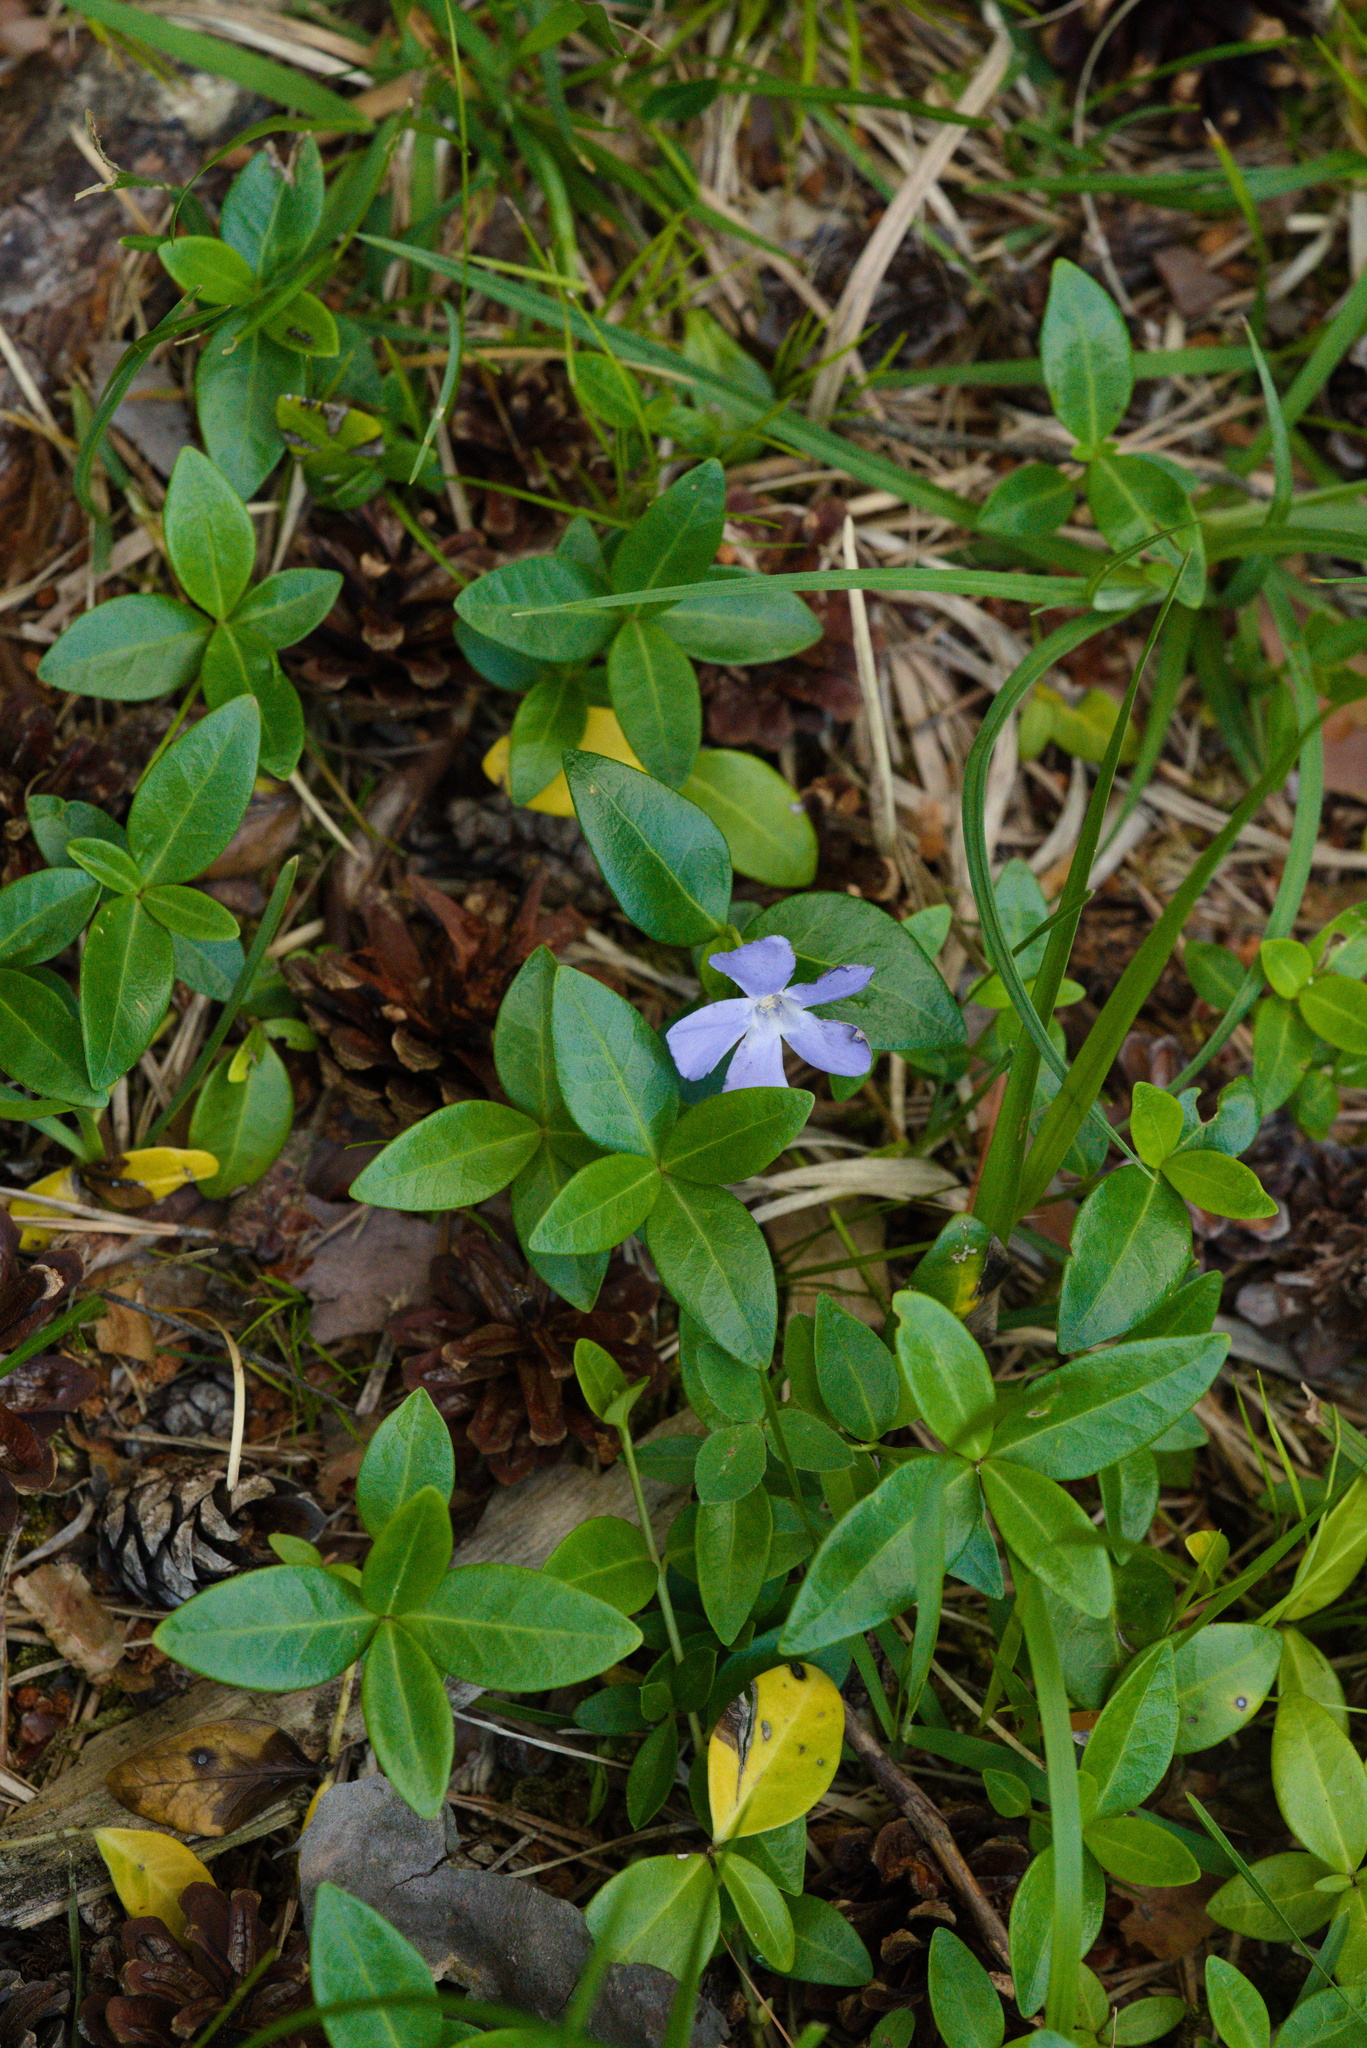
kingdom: Plantae
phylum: Tracheophyta
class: Magnoliopsida
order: Gentianales
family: Apocynaceae
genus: Vinca
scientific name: Vinca minor
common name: Lesser periwinkle
